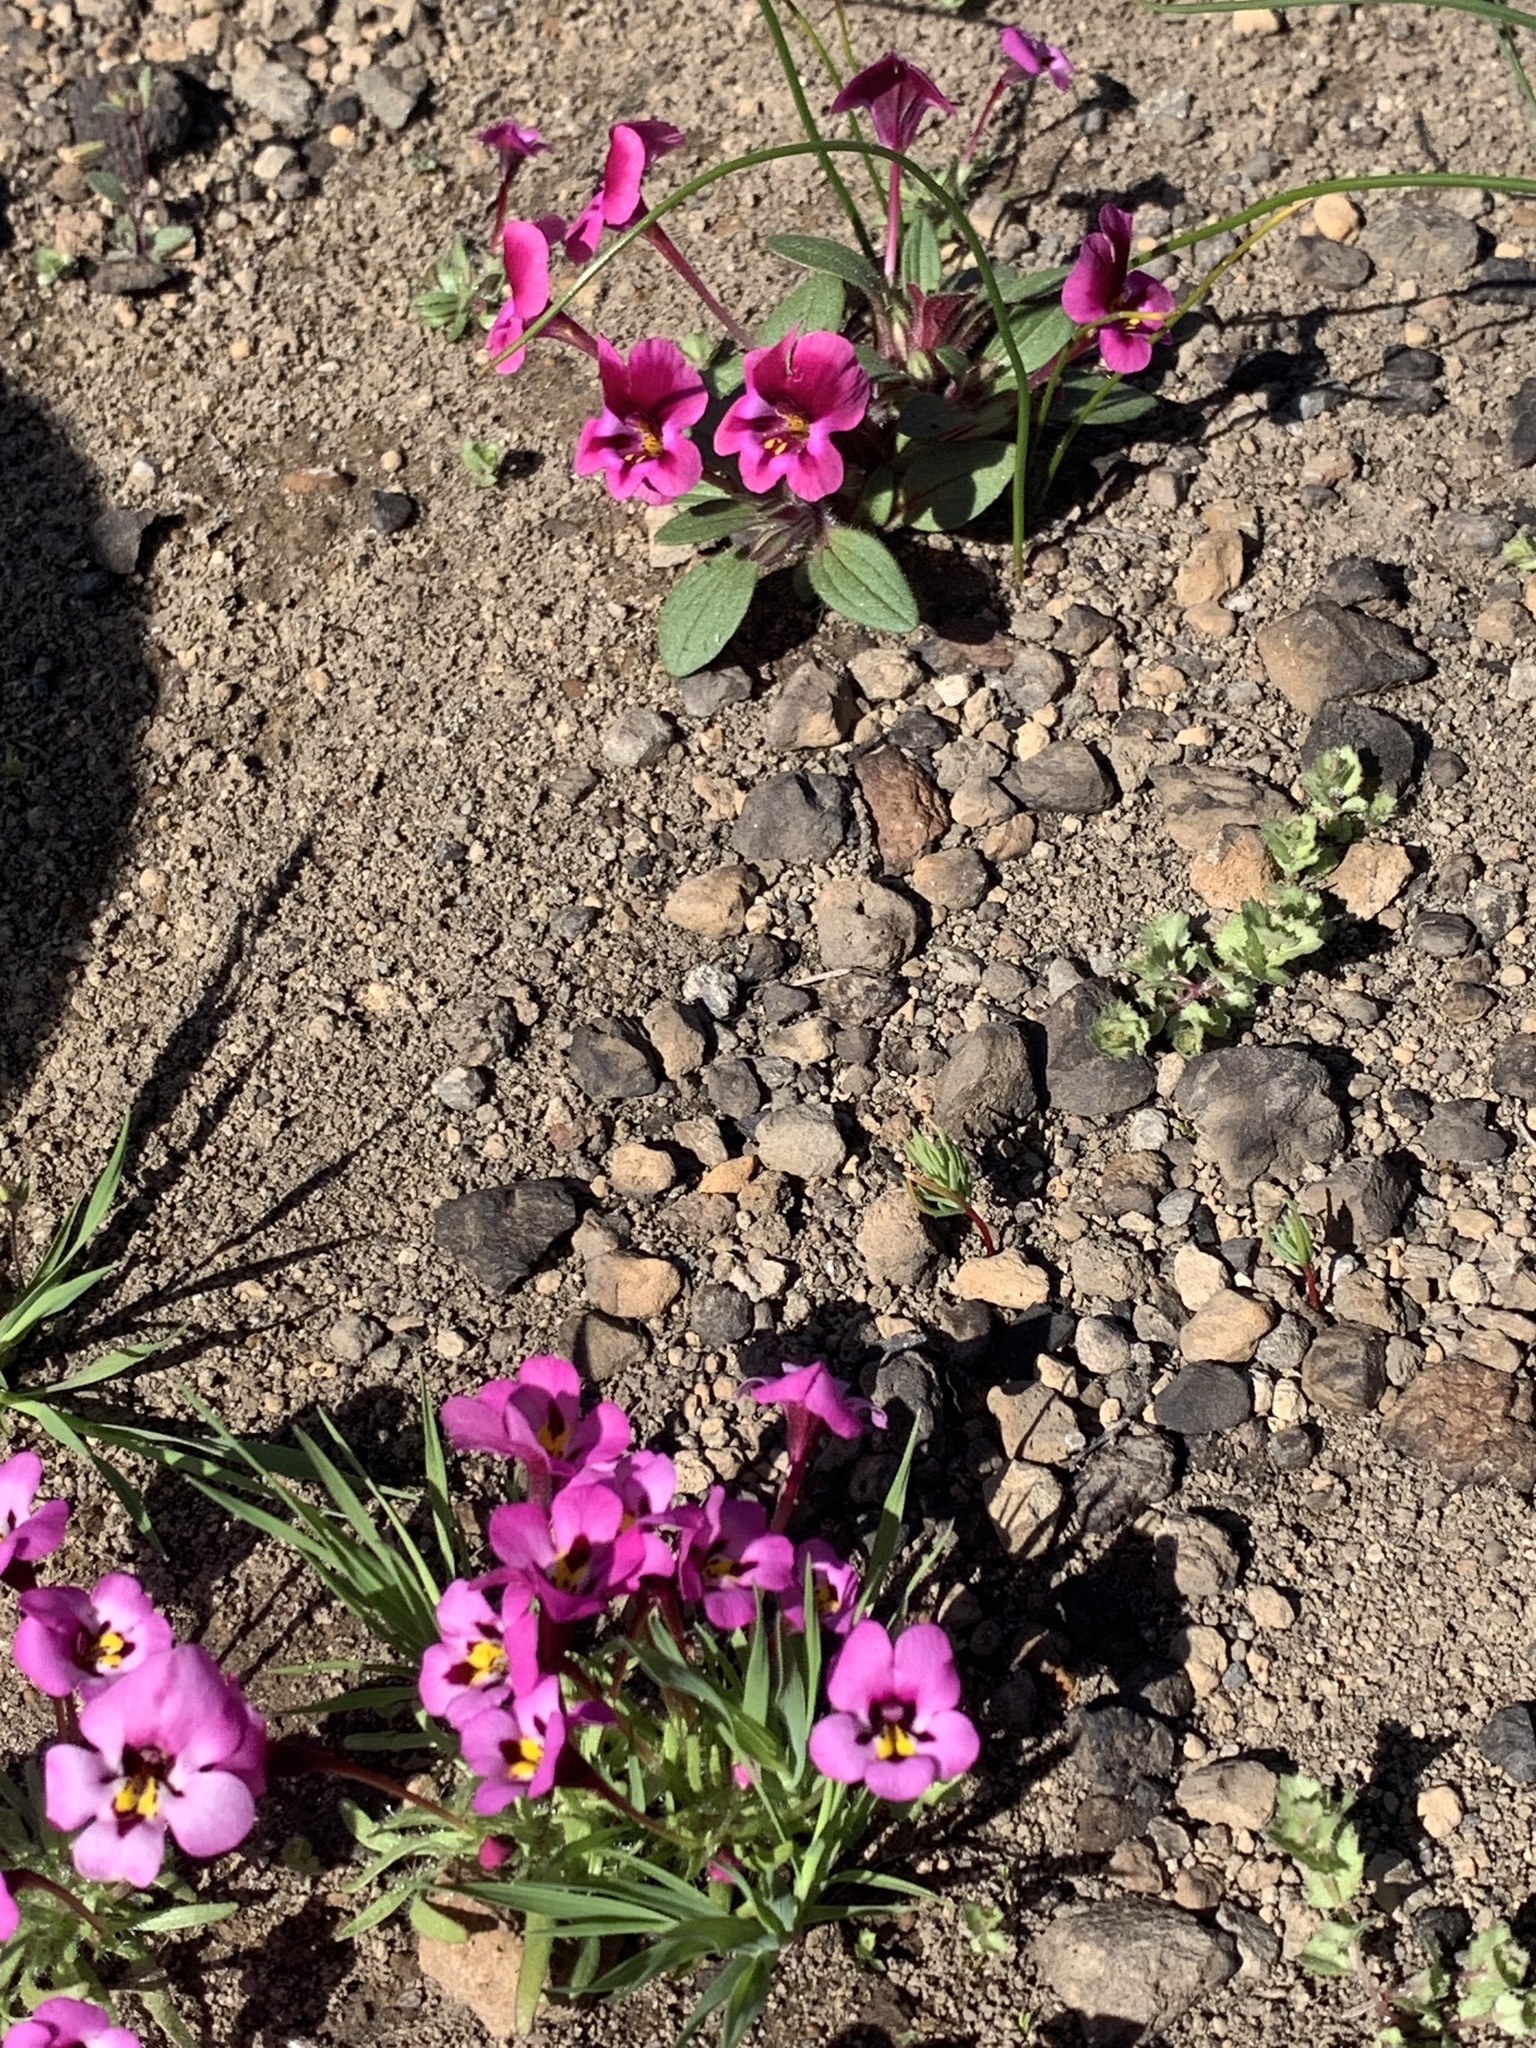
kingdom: Plantae
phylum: Tracheophyta
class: Magnoliopsida
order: Lamiales
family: Phrymaceae
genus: Diplacus
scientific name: Diplacus kelloggii
